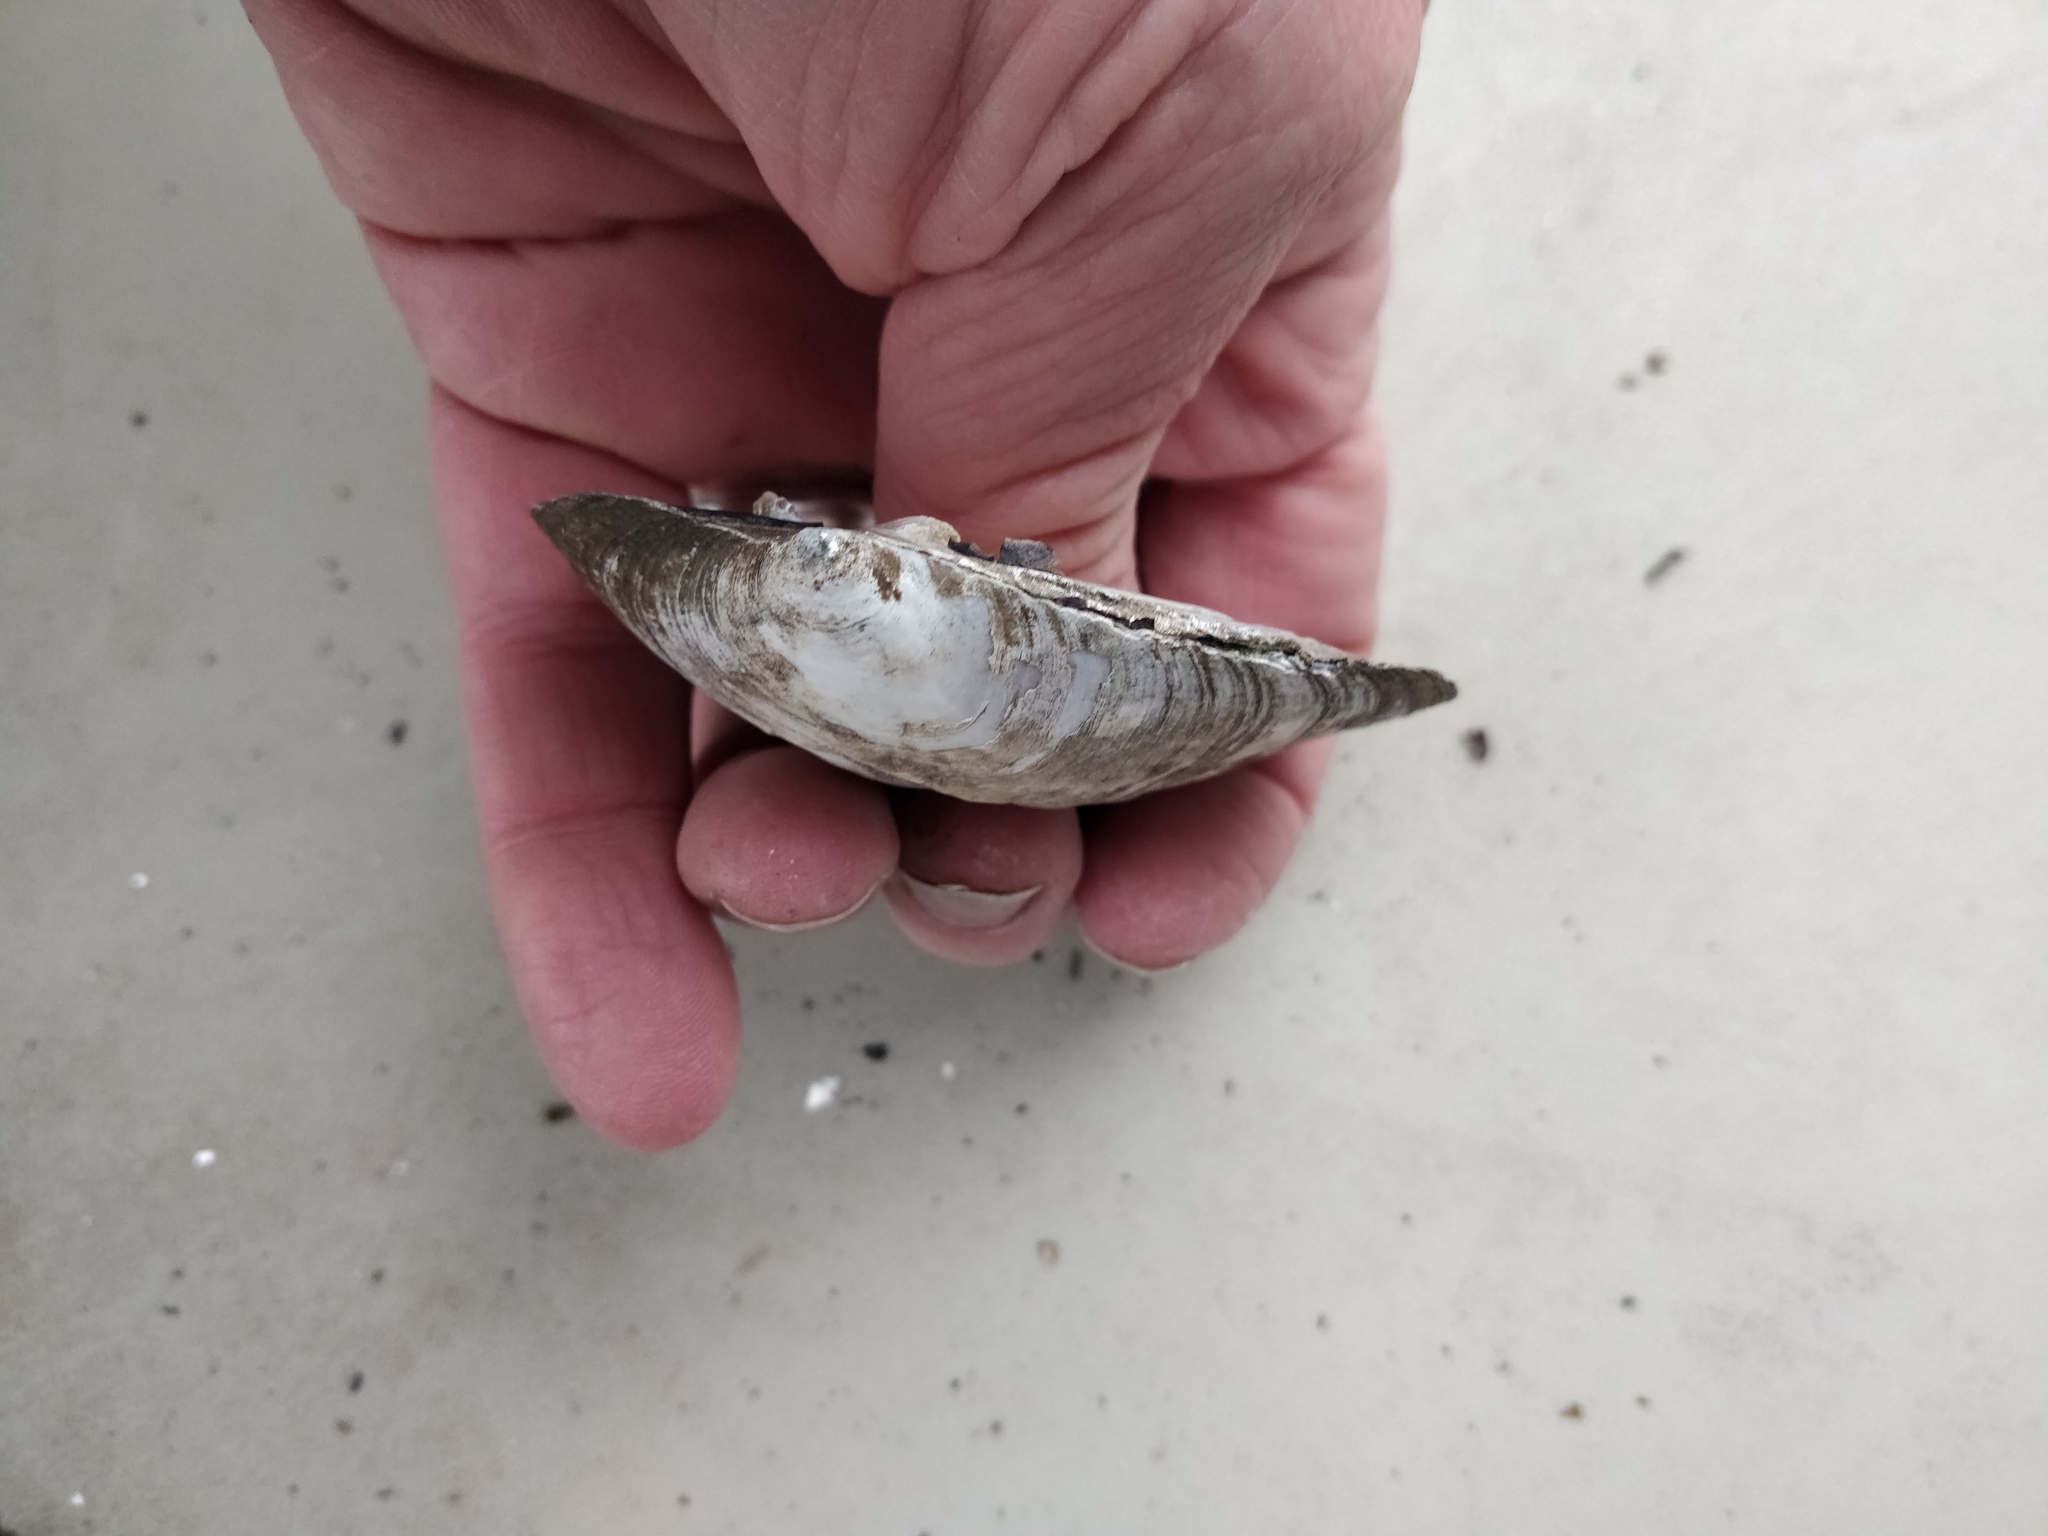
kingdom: Animalia
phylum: Mollusca
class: Bivalvia
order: Unionida
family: Unionidae
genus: Amblema
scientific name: Amblema plicata
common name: Threeridge
